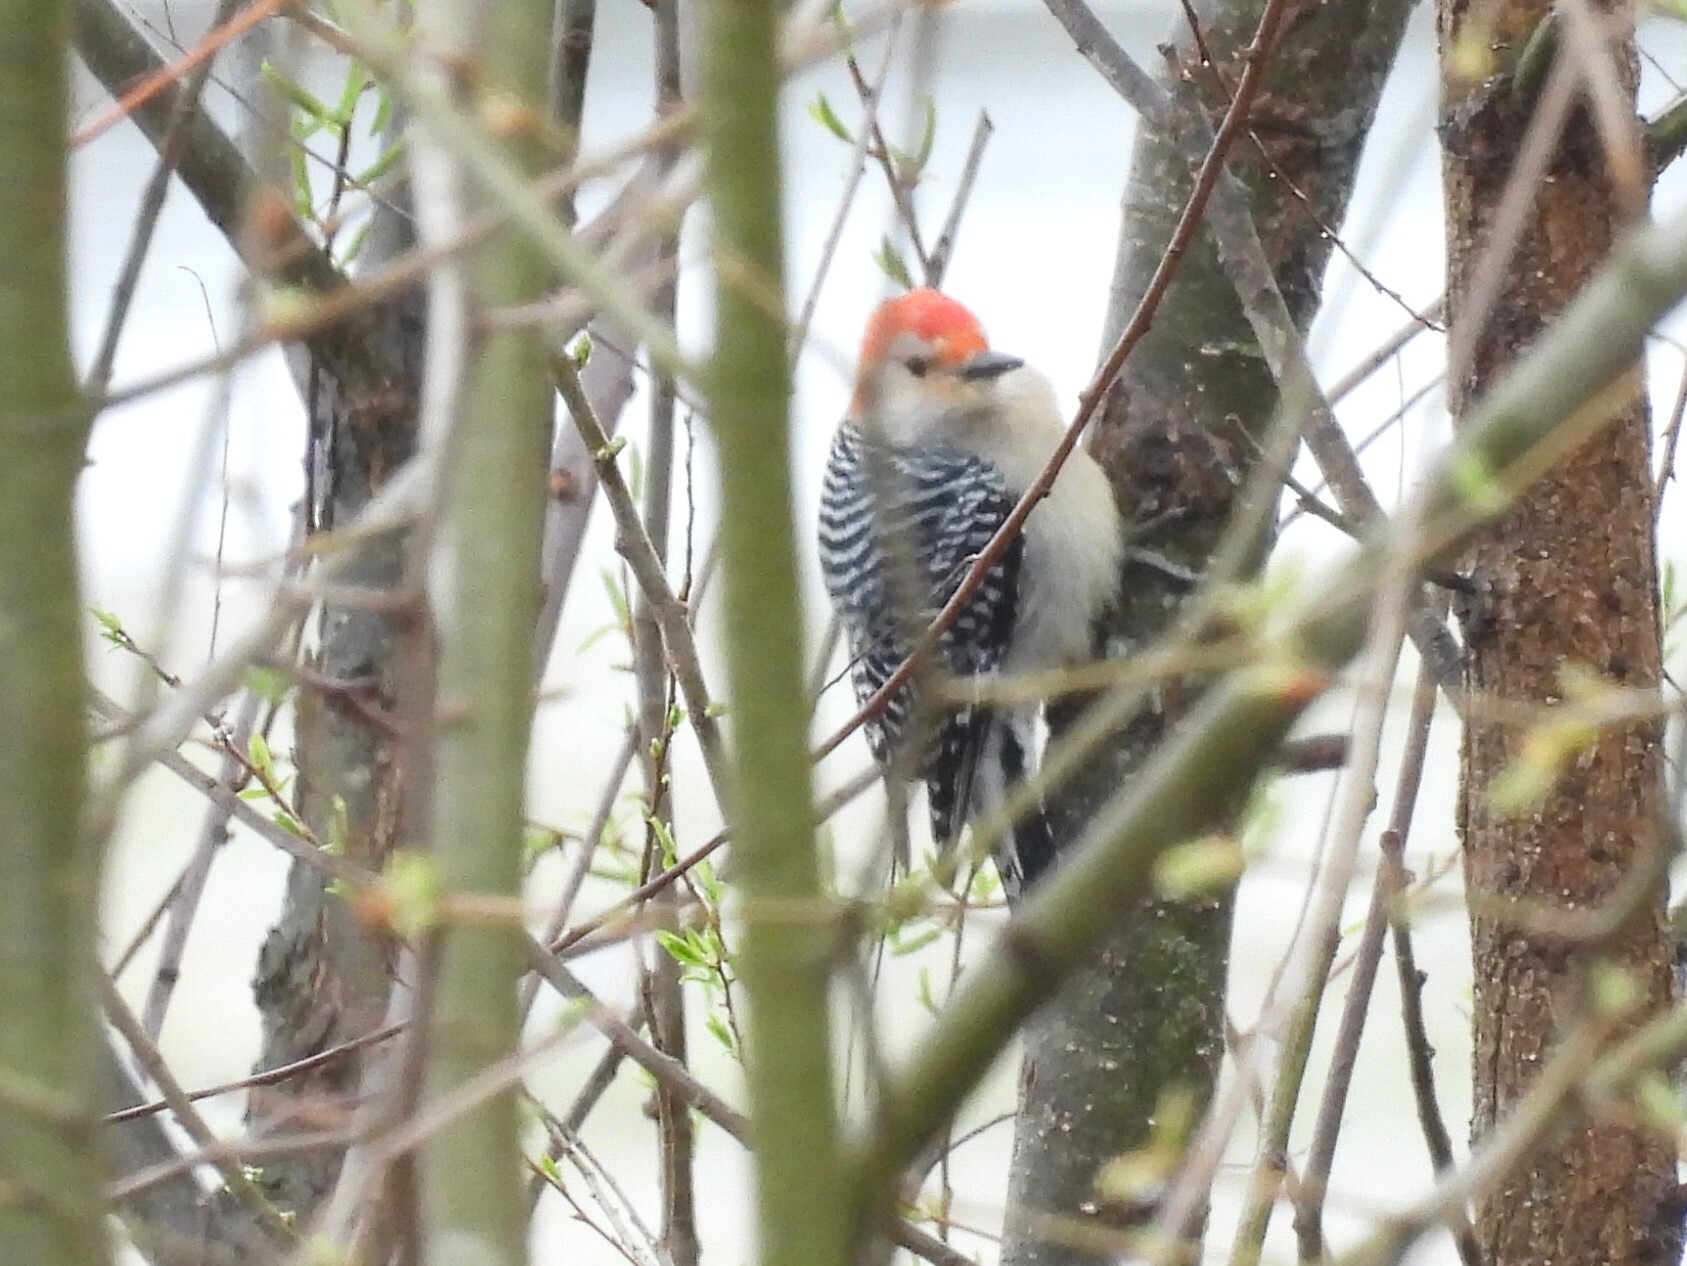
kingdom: Animalia
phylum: Chordata
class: Aves
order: Piciformes
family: Picidae
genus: Melanerpes
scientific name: Melanerpes carolinus
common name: Red-bellied woodpecker
